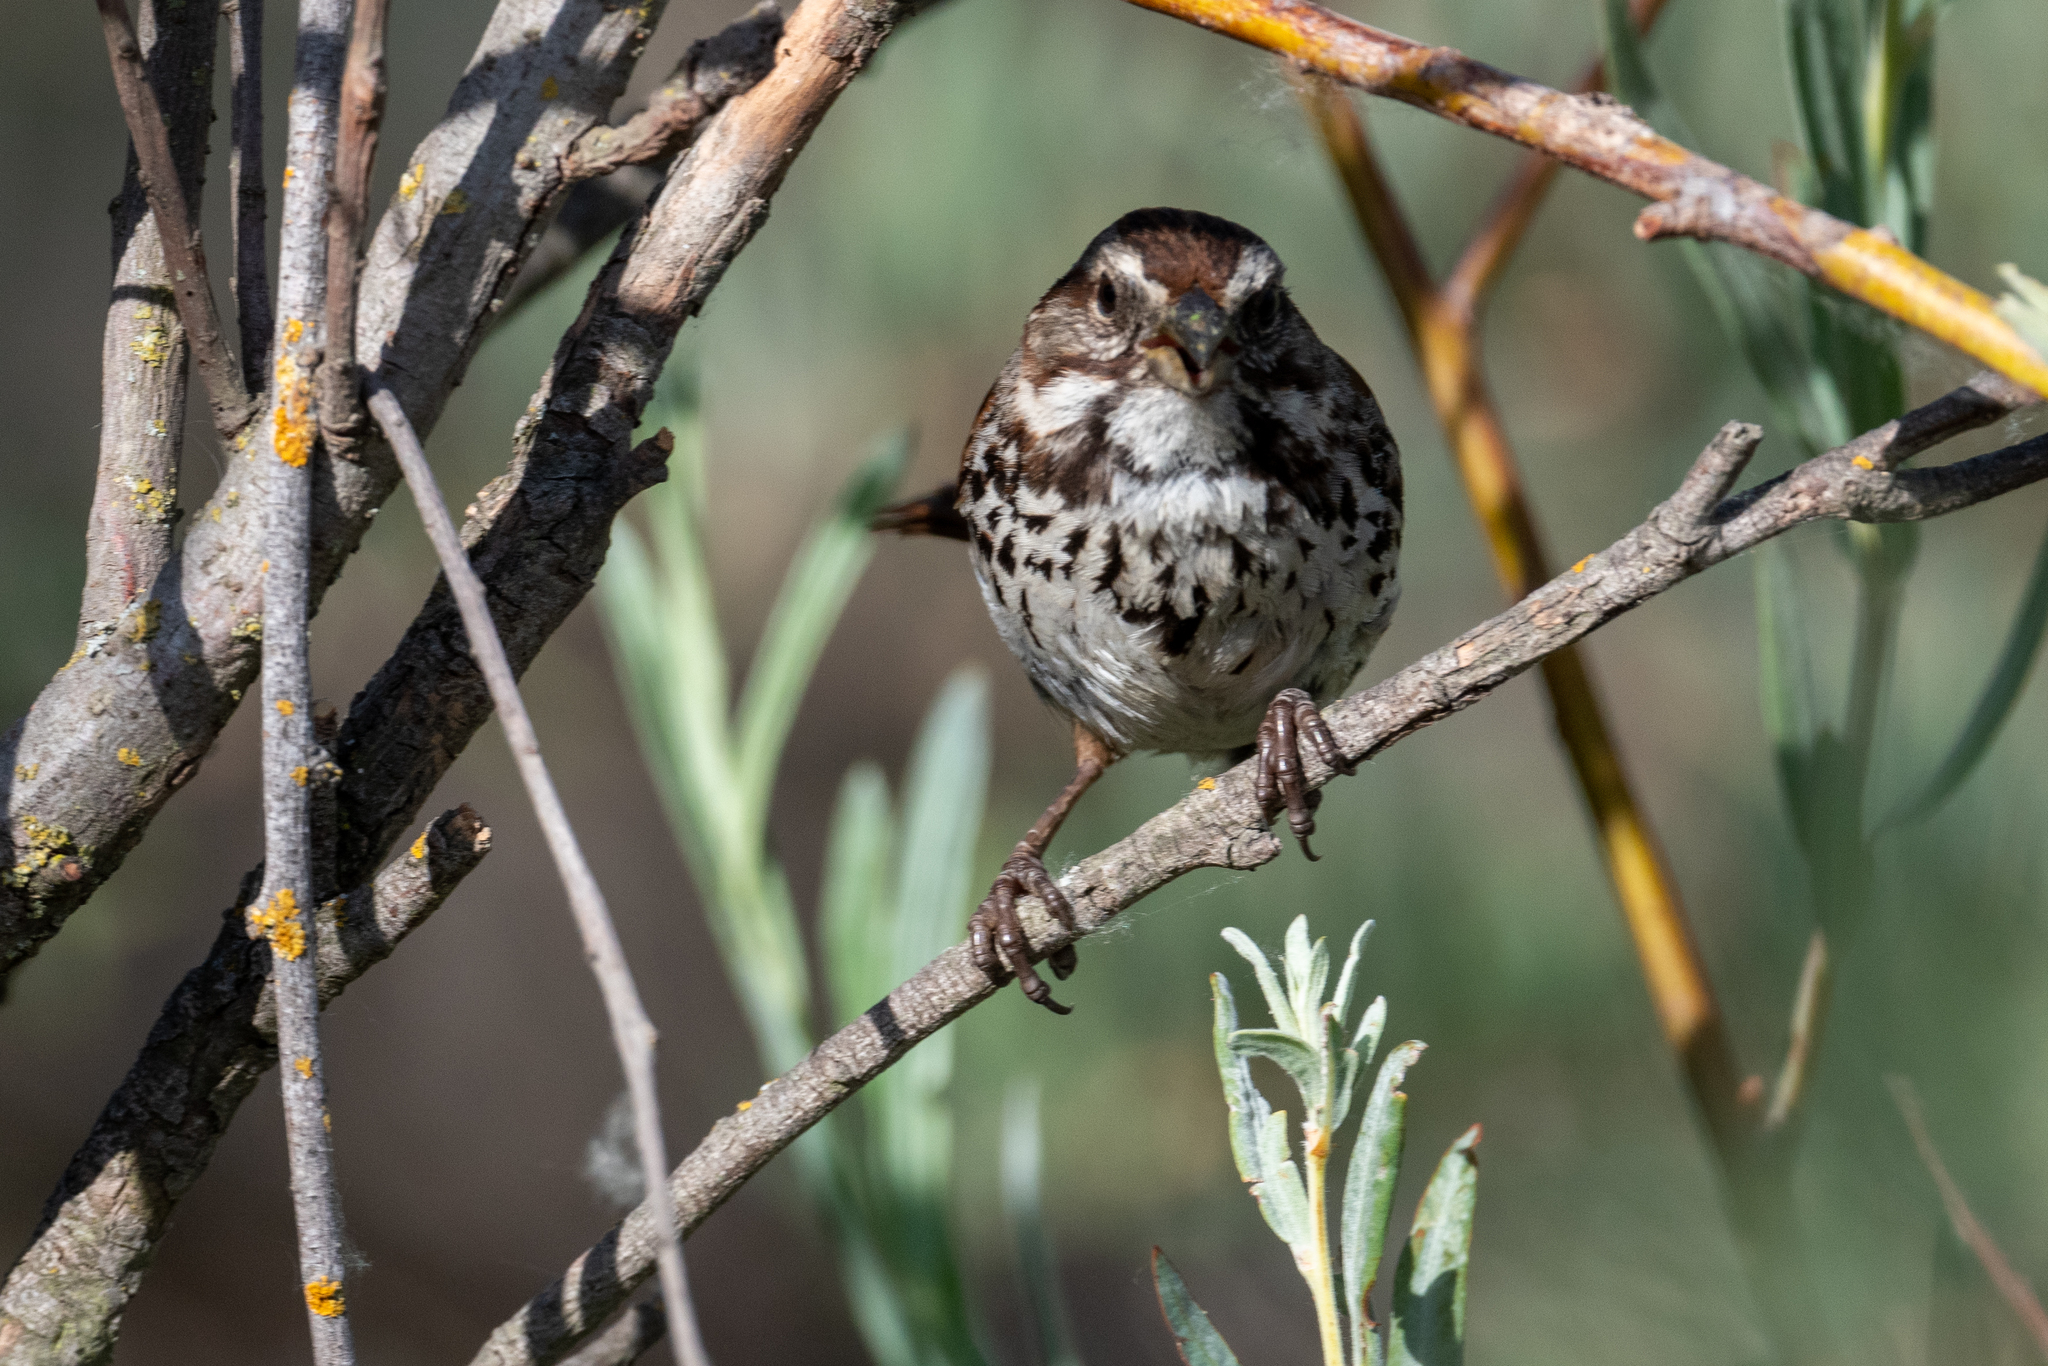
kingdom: Animalia
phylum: Chordata
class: Aves
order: Passeriformes
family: Passerellidae
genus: Melospiza
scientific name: Melospiza melodia
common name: Song sparrow
